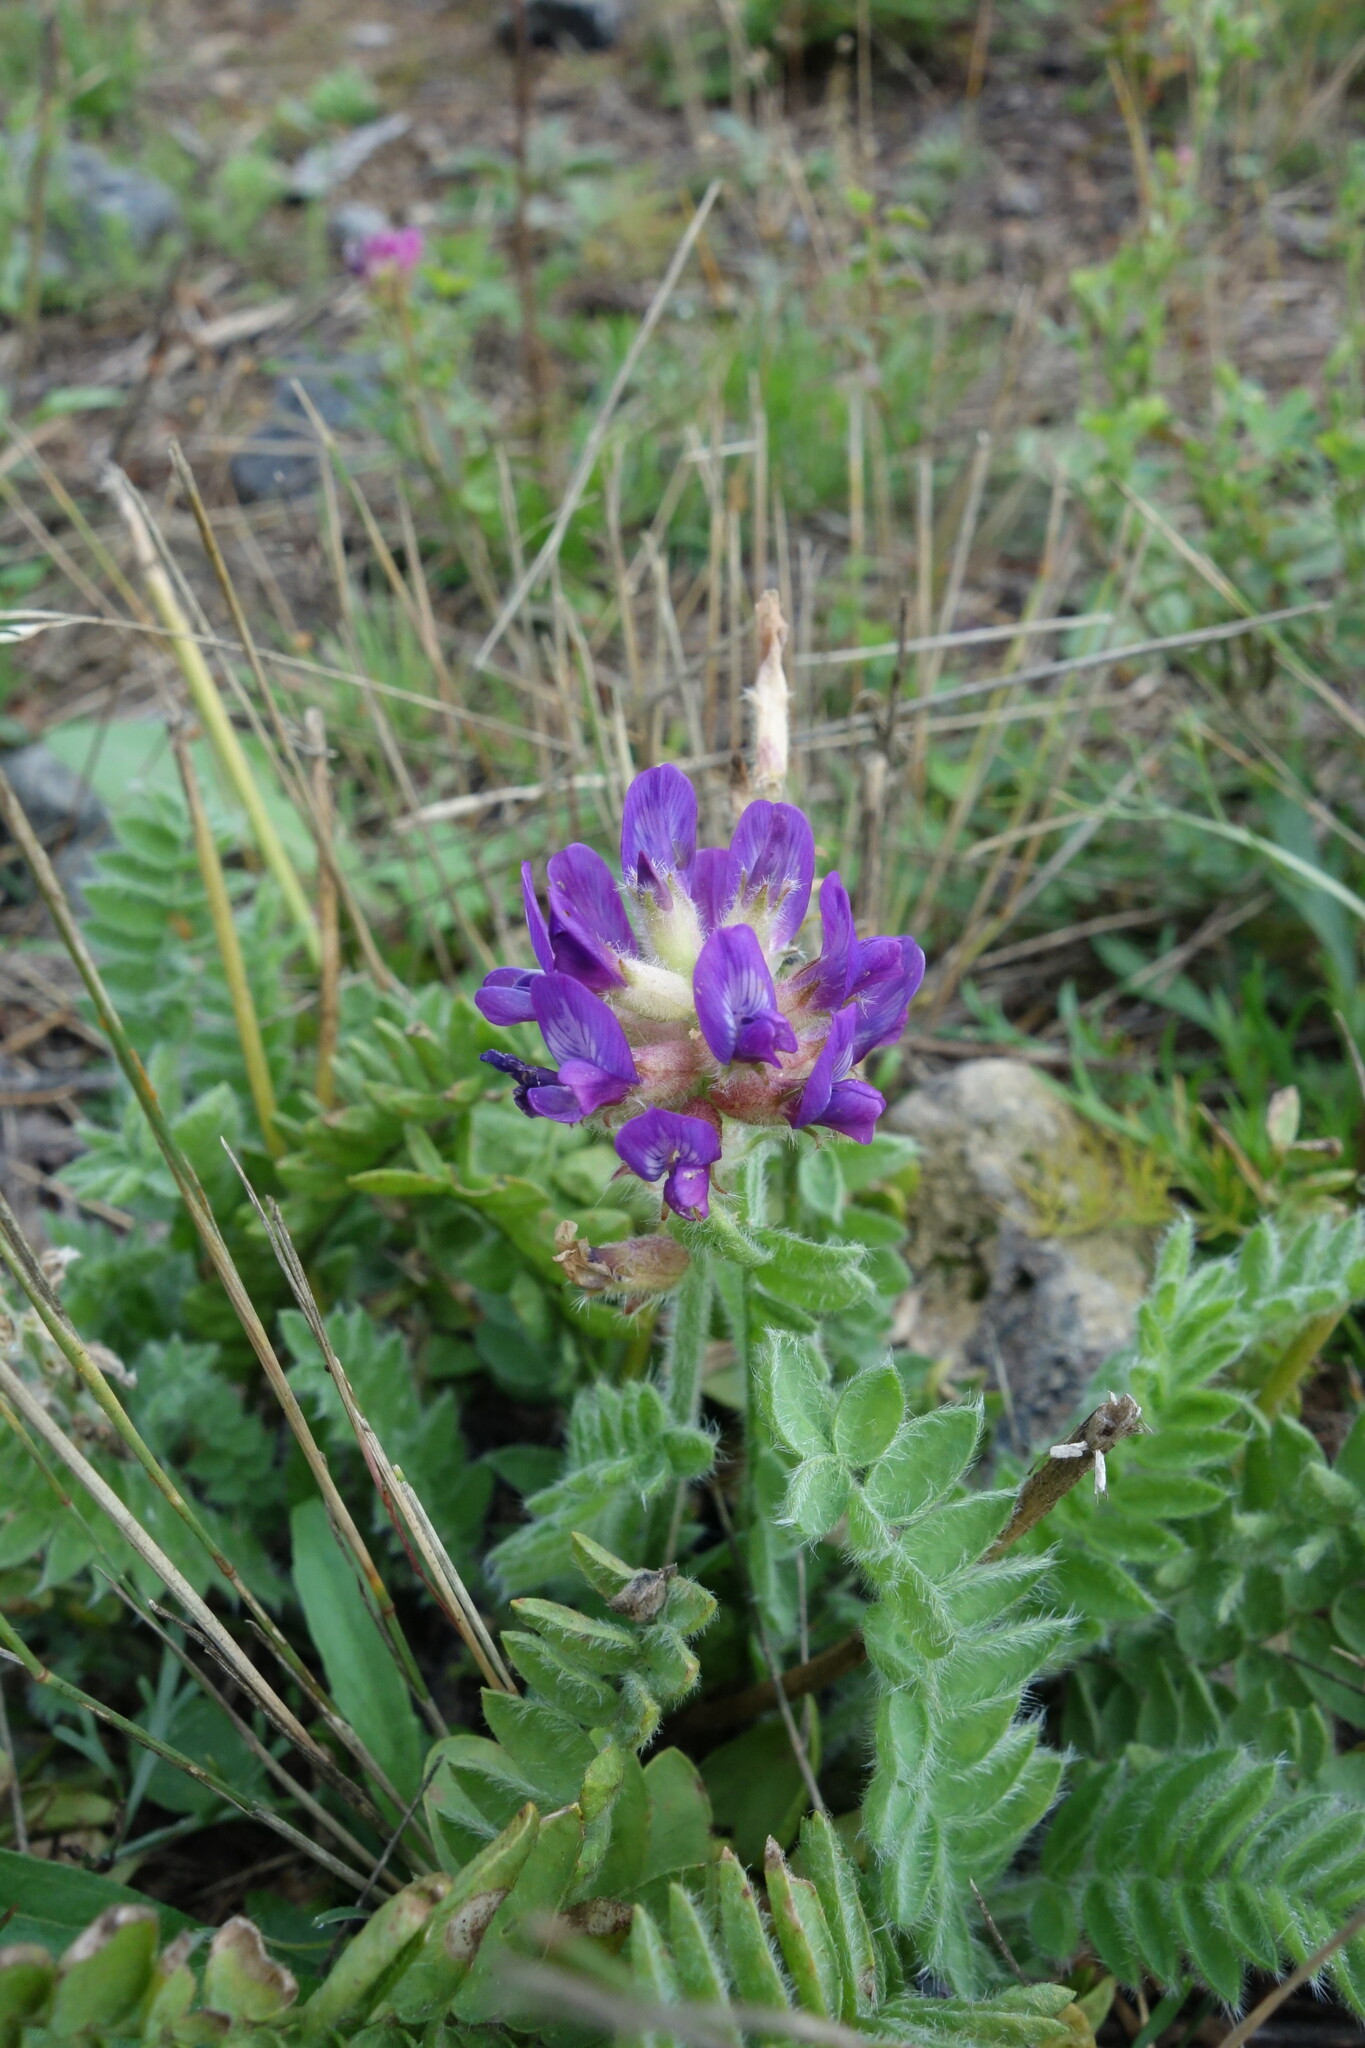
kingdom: Plantae
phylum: Tracheophyta
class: Magnoliopsida
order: Fabales
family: Fabaceae
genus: Oxytropis
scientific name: Oxytropis sylvatica
